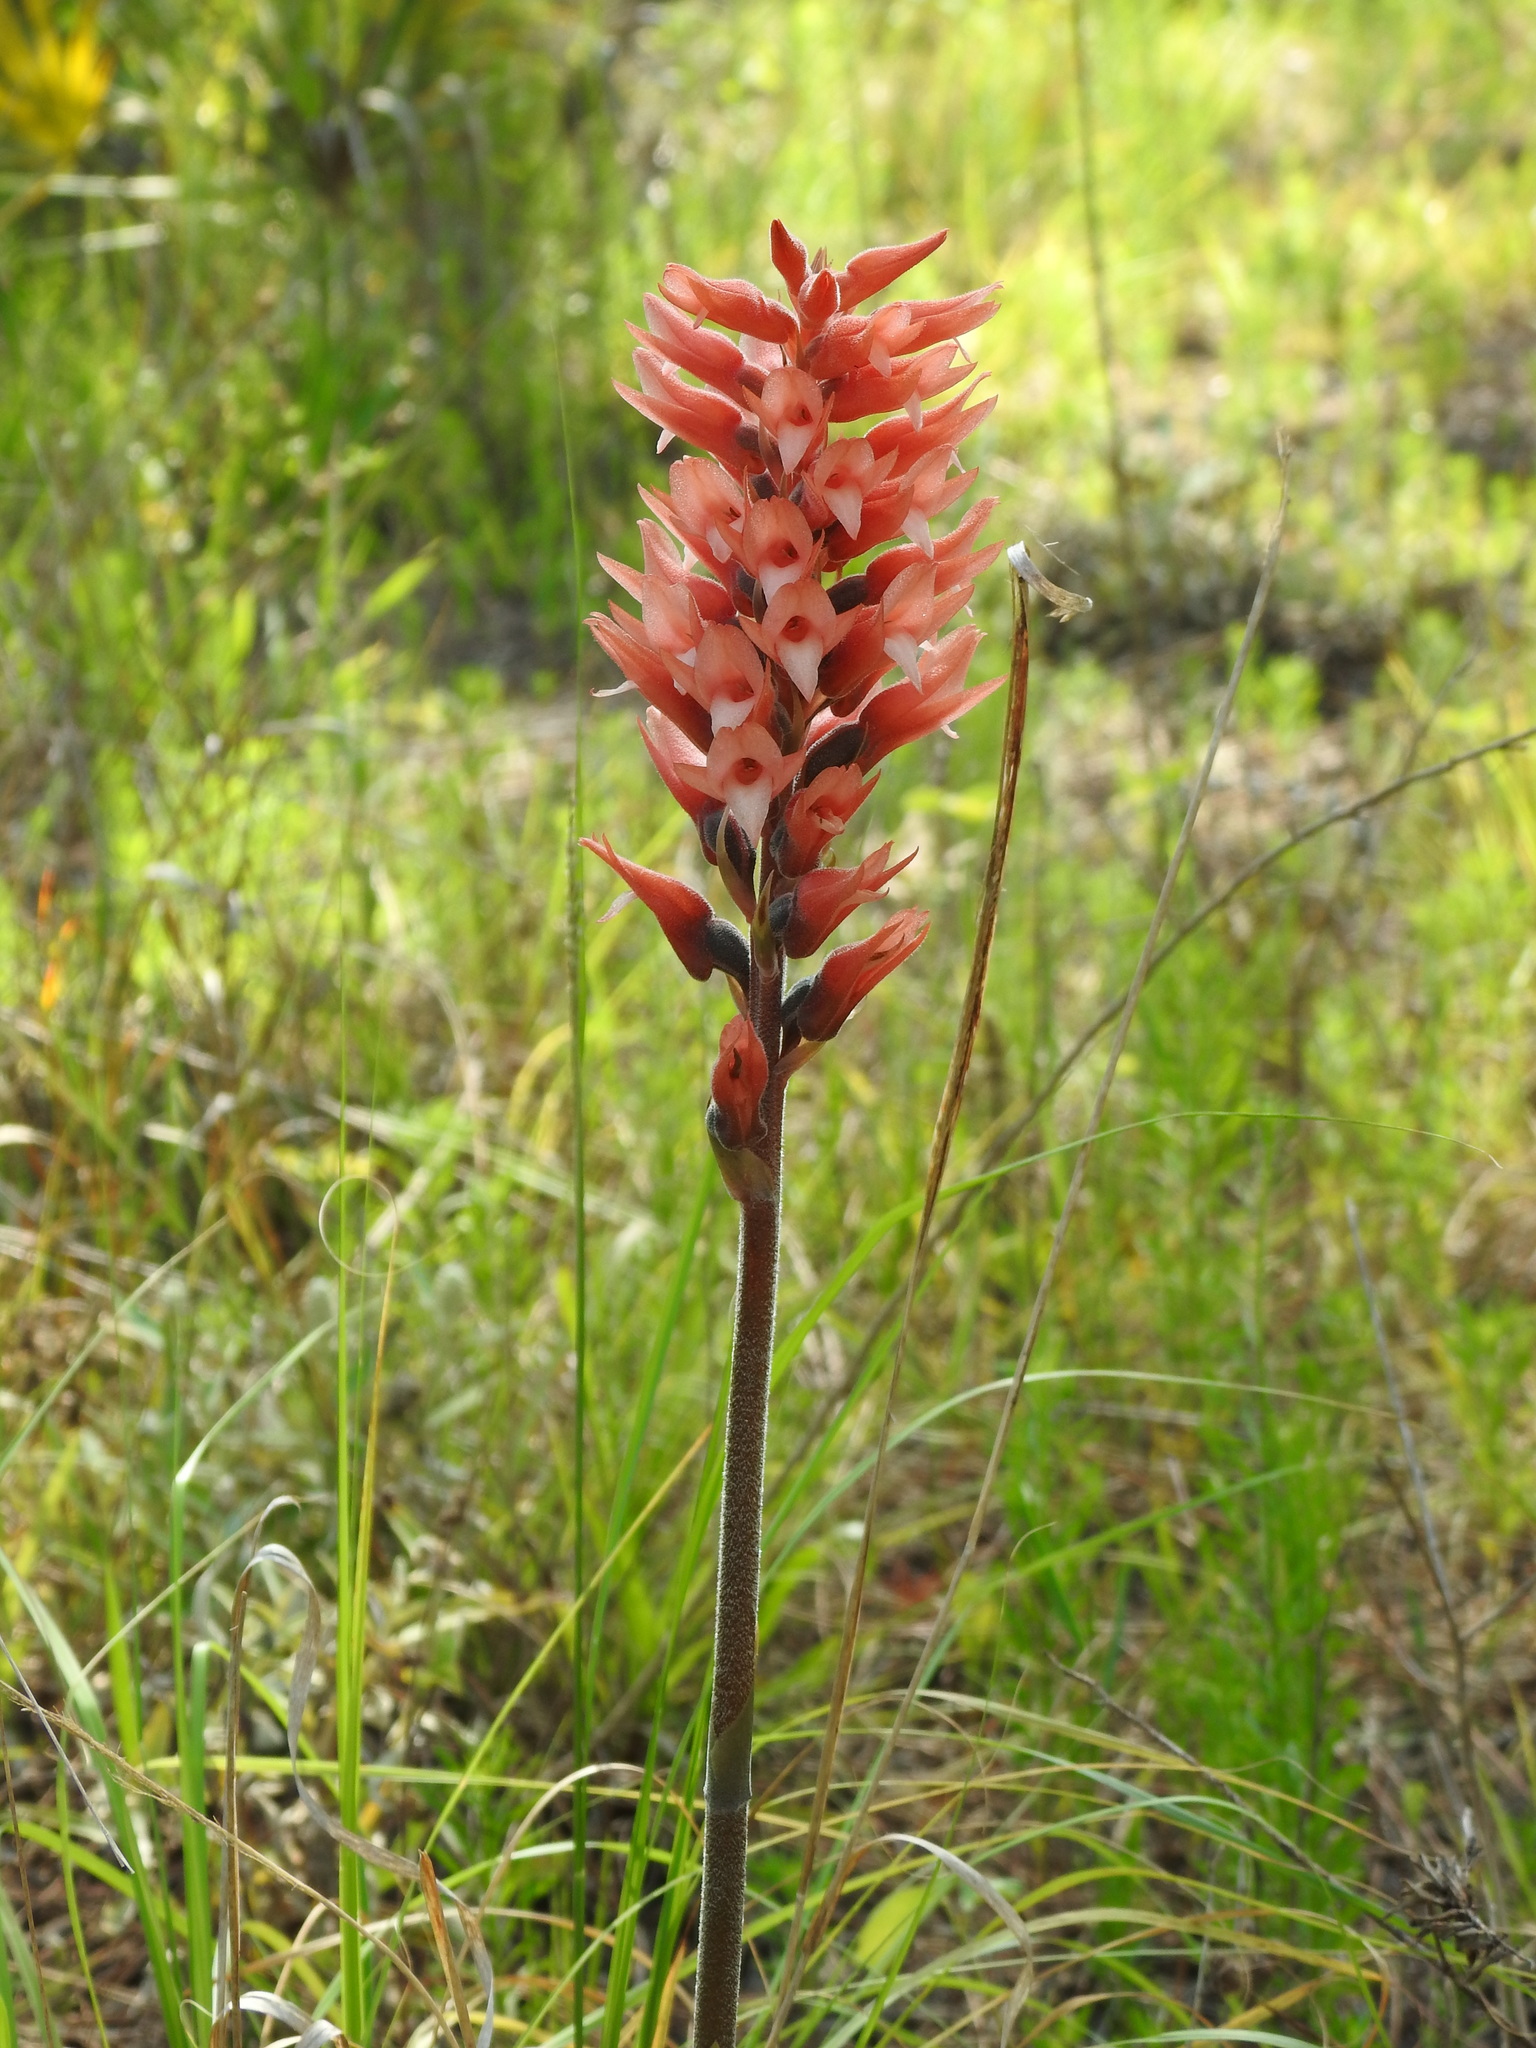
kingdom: Plantae
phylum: Tracheophyta
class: Liliopsida
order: Asparagales
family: Orchidaceae
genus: Sacoila
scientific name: Sacoila lanceolata
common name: Leafless beaked ladiestresses
